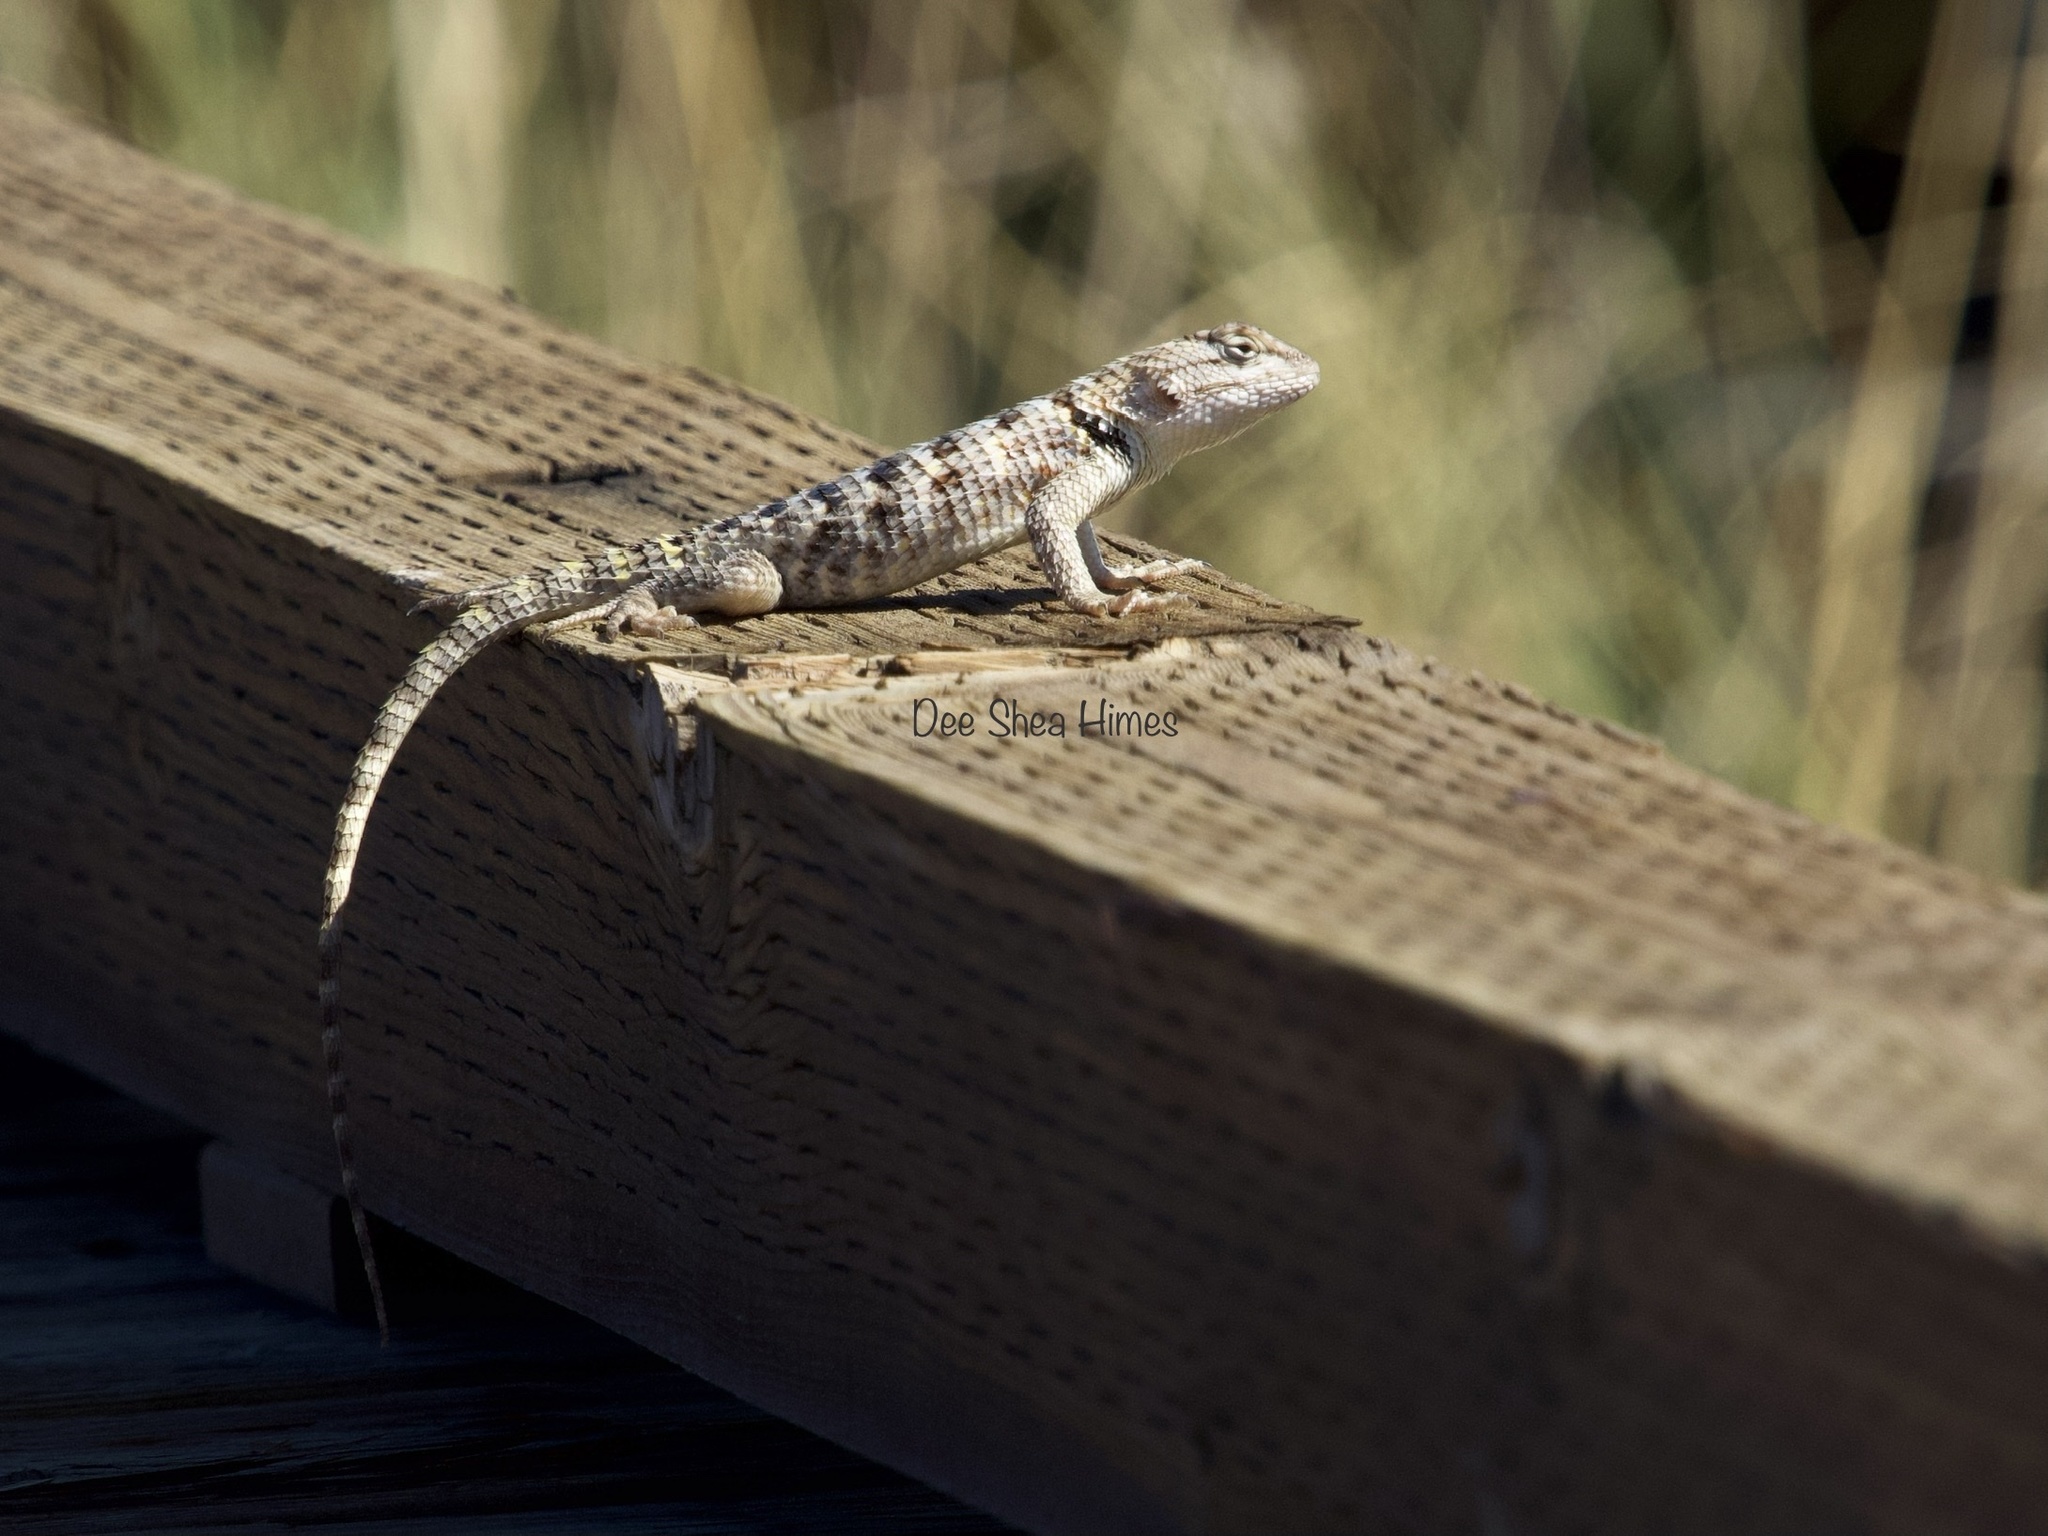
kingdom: Animalia
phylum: Chordata
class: Squamata
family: Phrynosomatidae
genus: Sceloporus
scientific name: Sceloporus uniformis
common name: Yellow-backed spiny lizard
